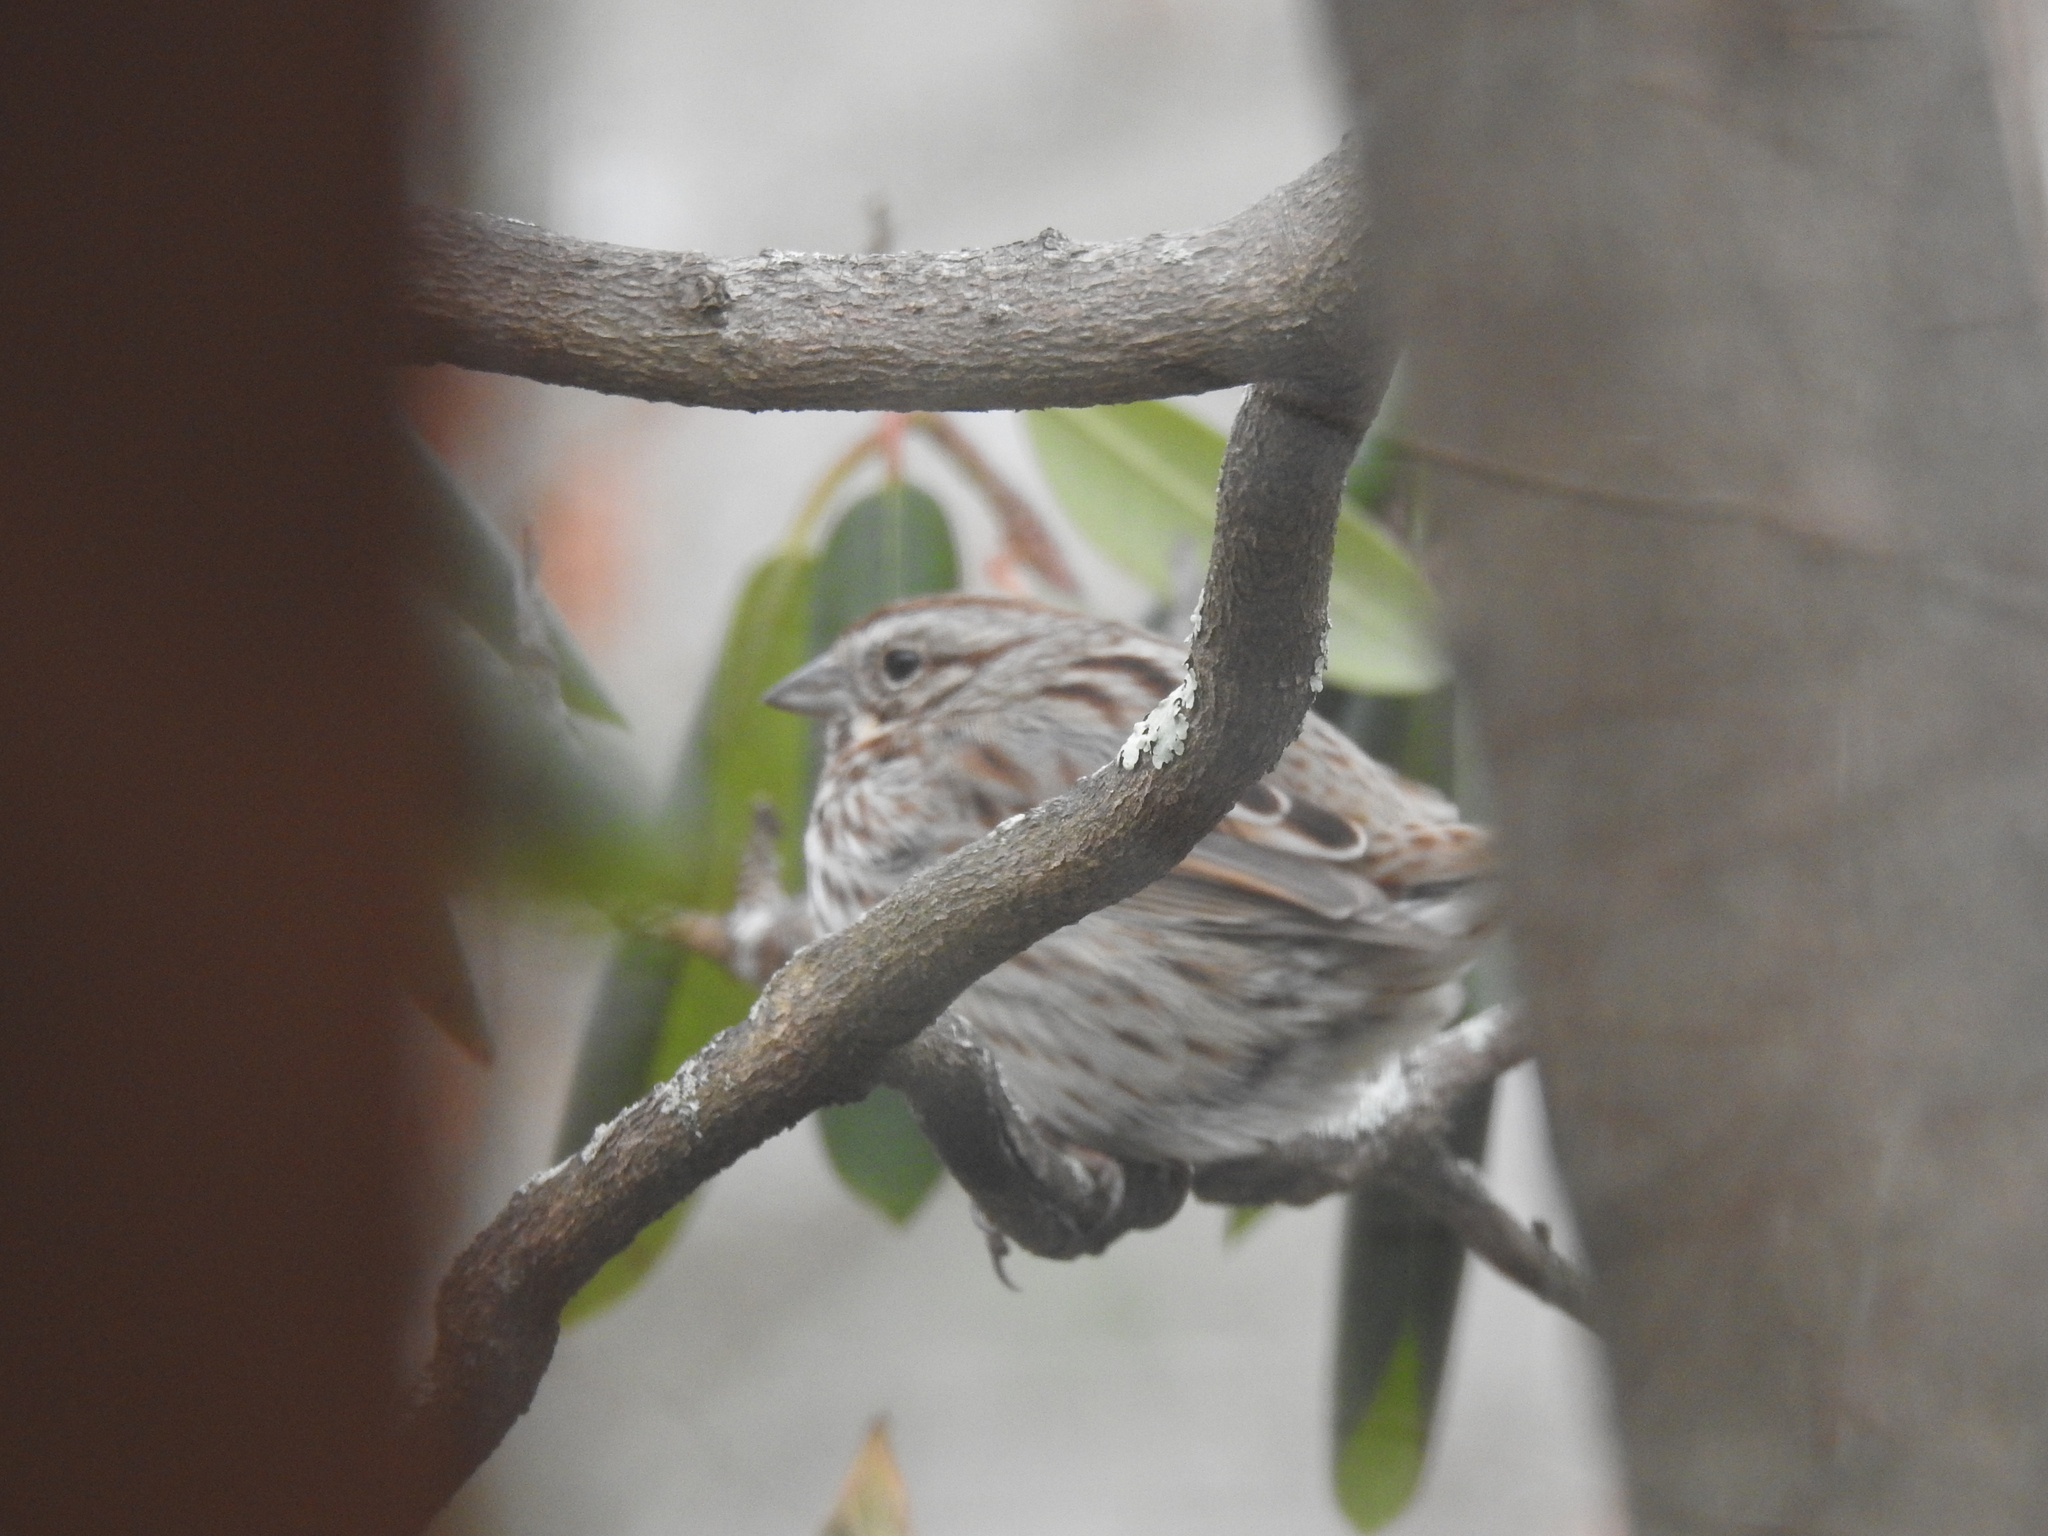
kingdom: Animalia
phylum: Chordata
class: Aves
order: Passeriformes
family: Passerellidae
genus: Melospiza
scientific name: Melospiza melodia
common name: Song sparrow
